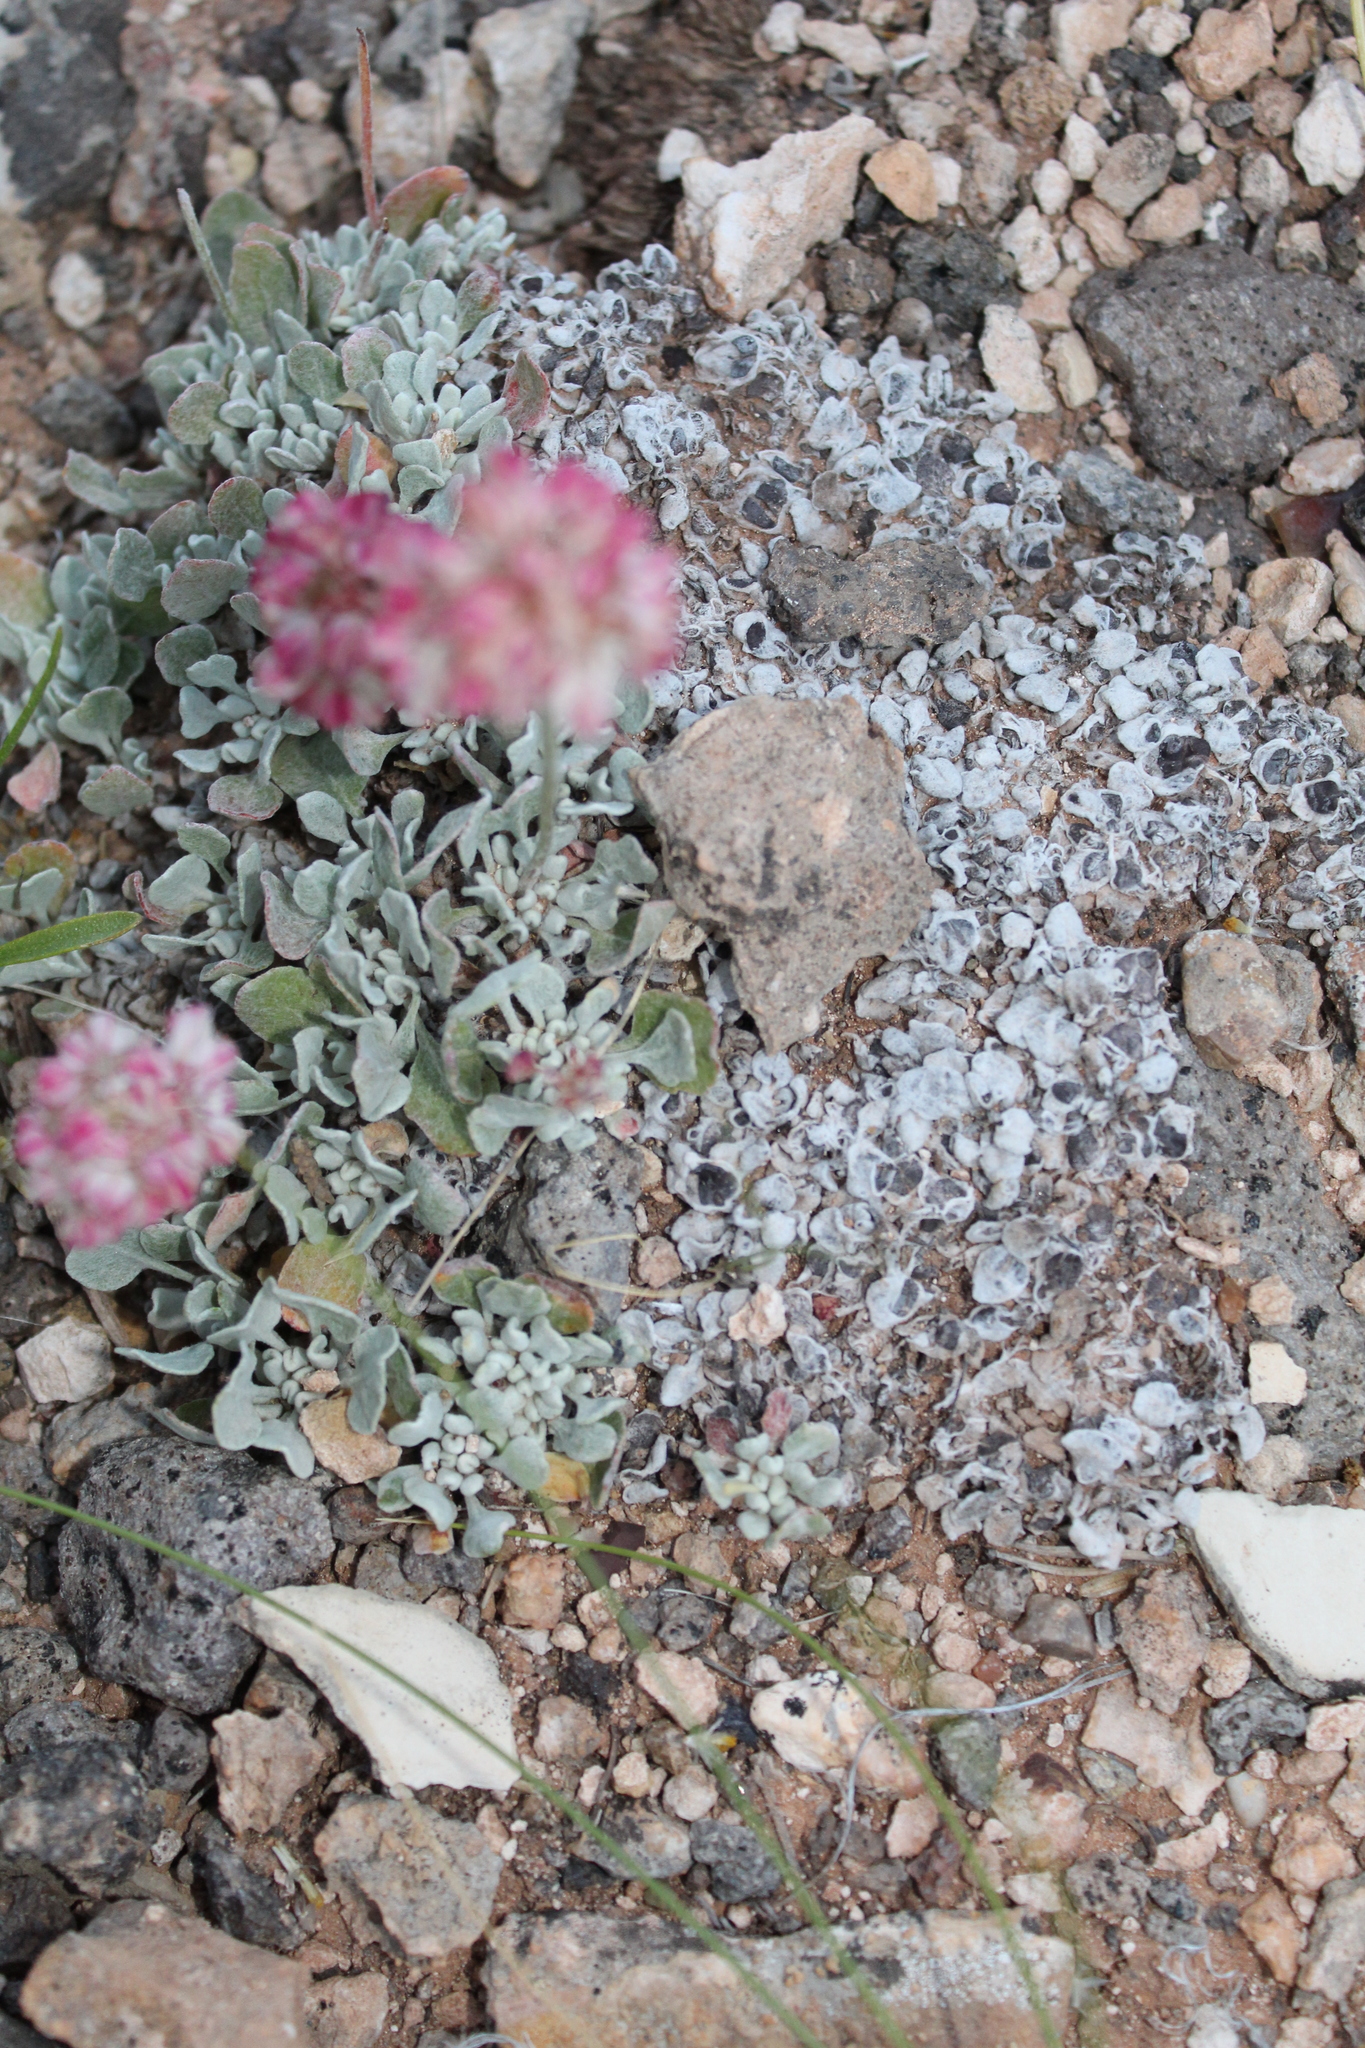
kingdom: Plantae
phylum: Tracheophyta
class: Magnoliopsida
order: Caryophyllales
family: Polygonaceae
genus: Eriogonum
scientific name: Eriogonum ovalifolium
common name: Cushion buckwheat
